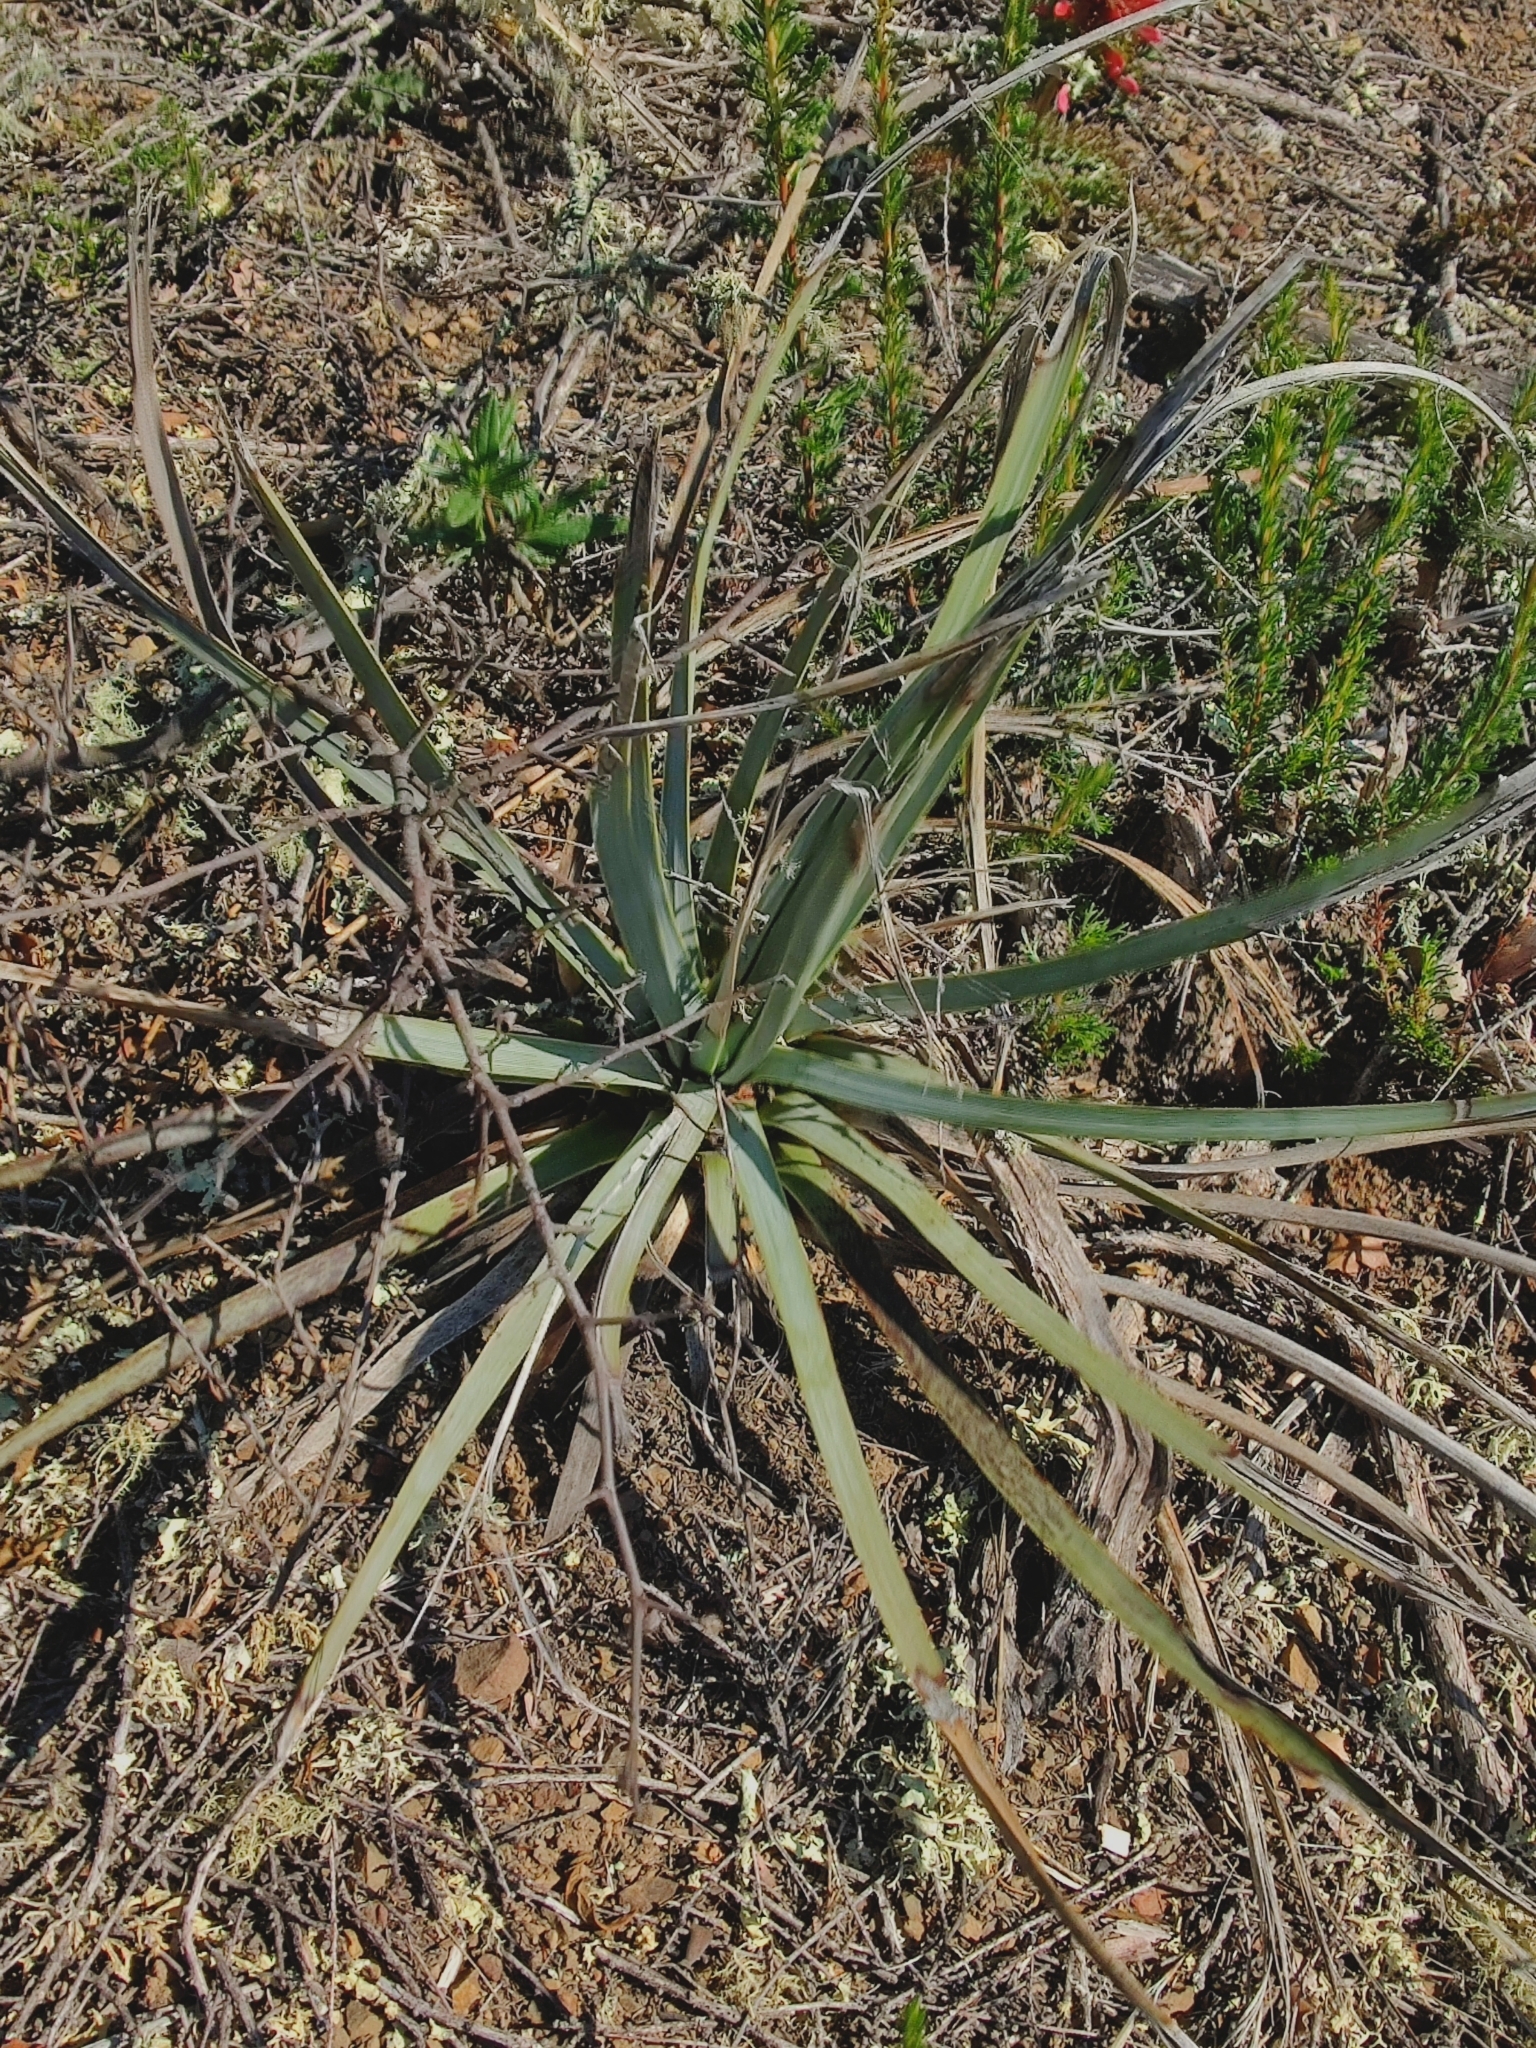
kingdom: Plantae
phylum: Tracheophyta
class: Liliopsida
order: Asparagales
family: Asparagaceae
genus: Hesperoyucca
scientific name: Hesperoyucca whipplei
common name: Our lord's-candle
